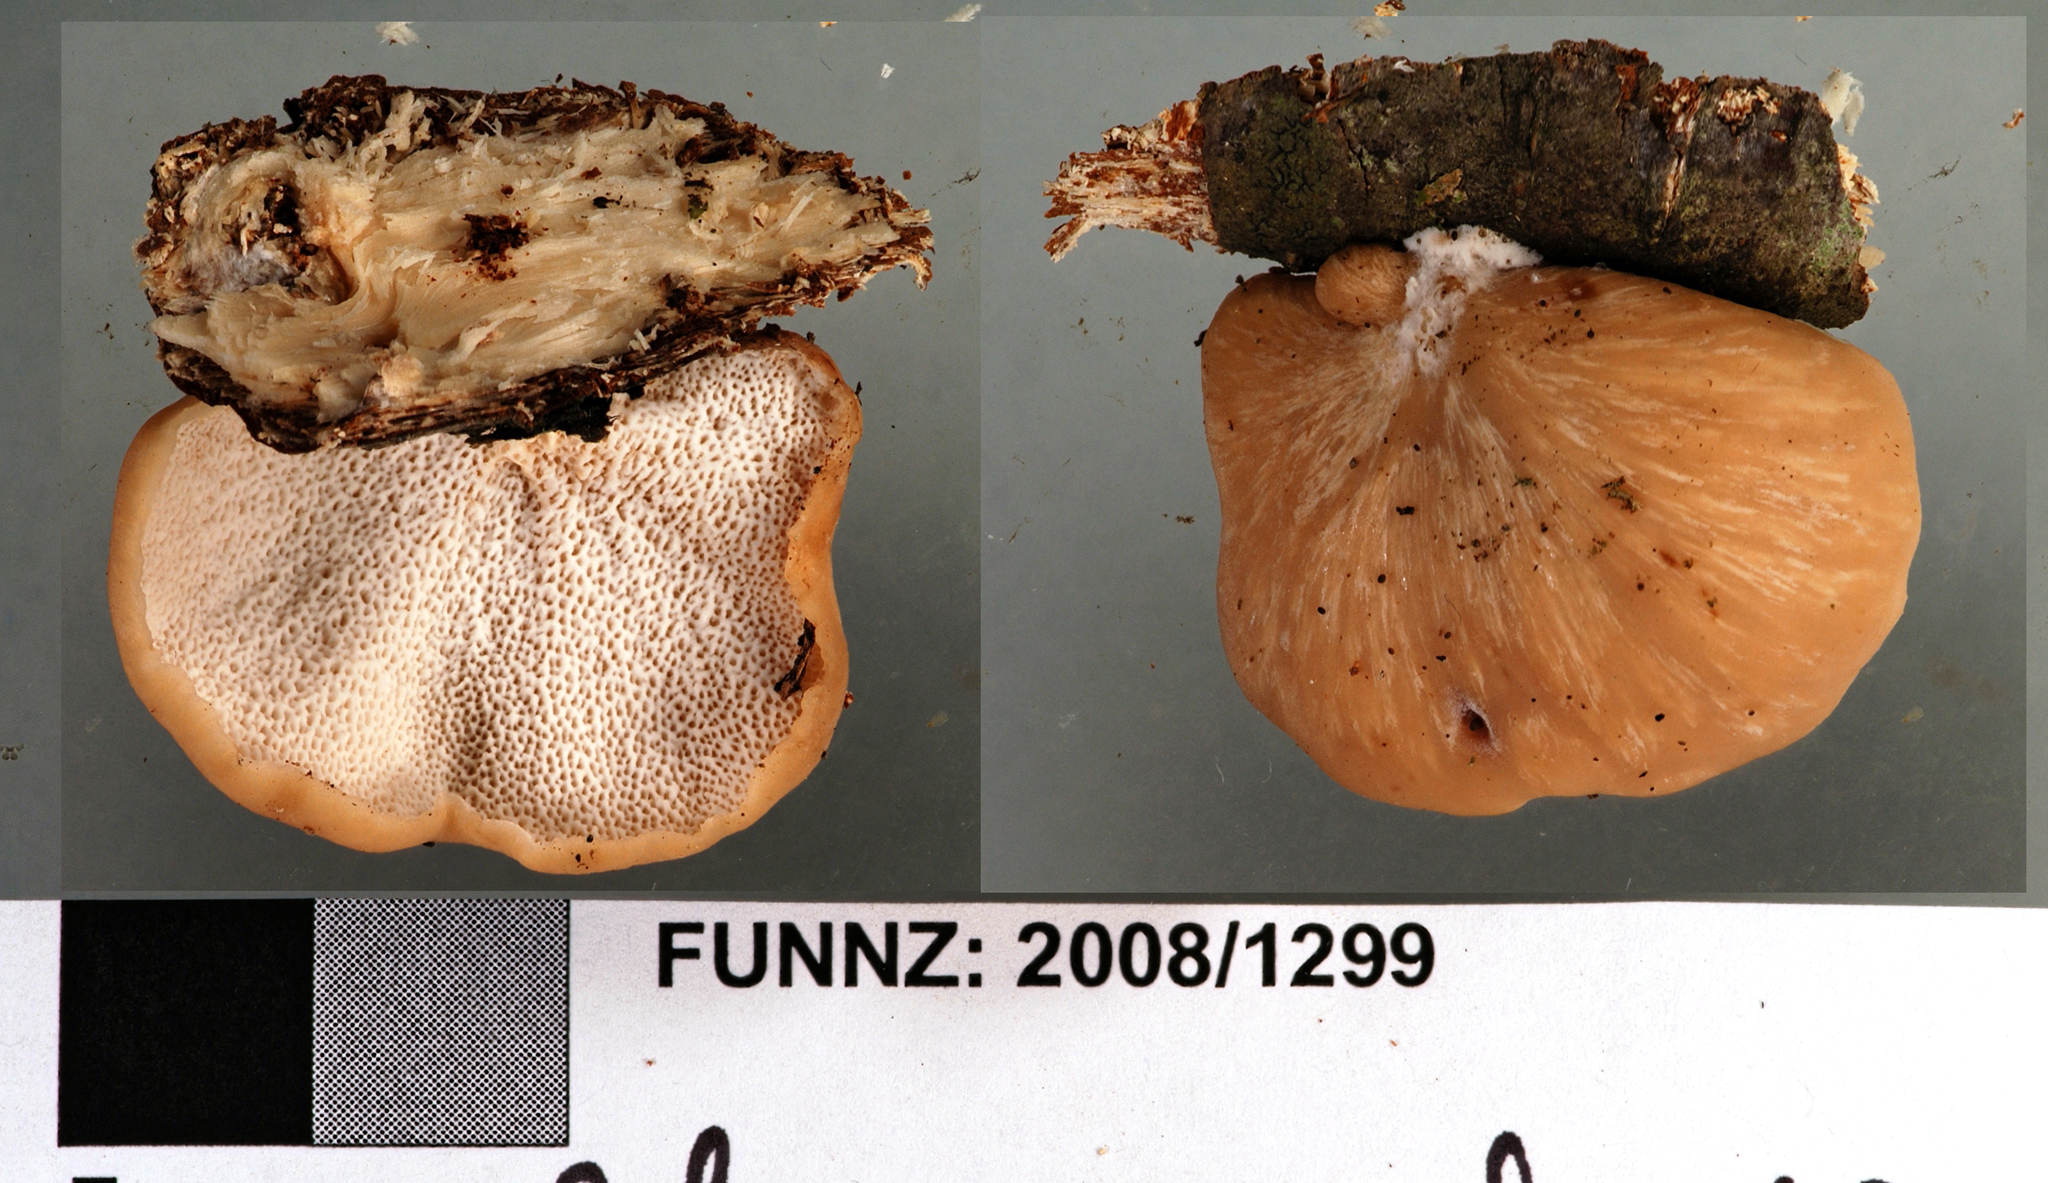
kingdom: Fungi
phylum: Basidiomycota
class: Agaricomycetes
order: Polyporales
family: Polyporaceae
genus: Polyporus
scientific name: Polyporus hypomelanus
